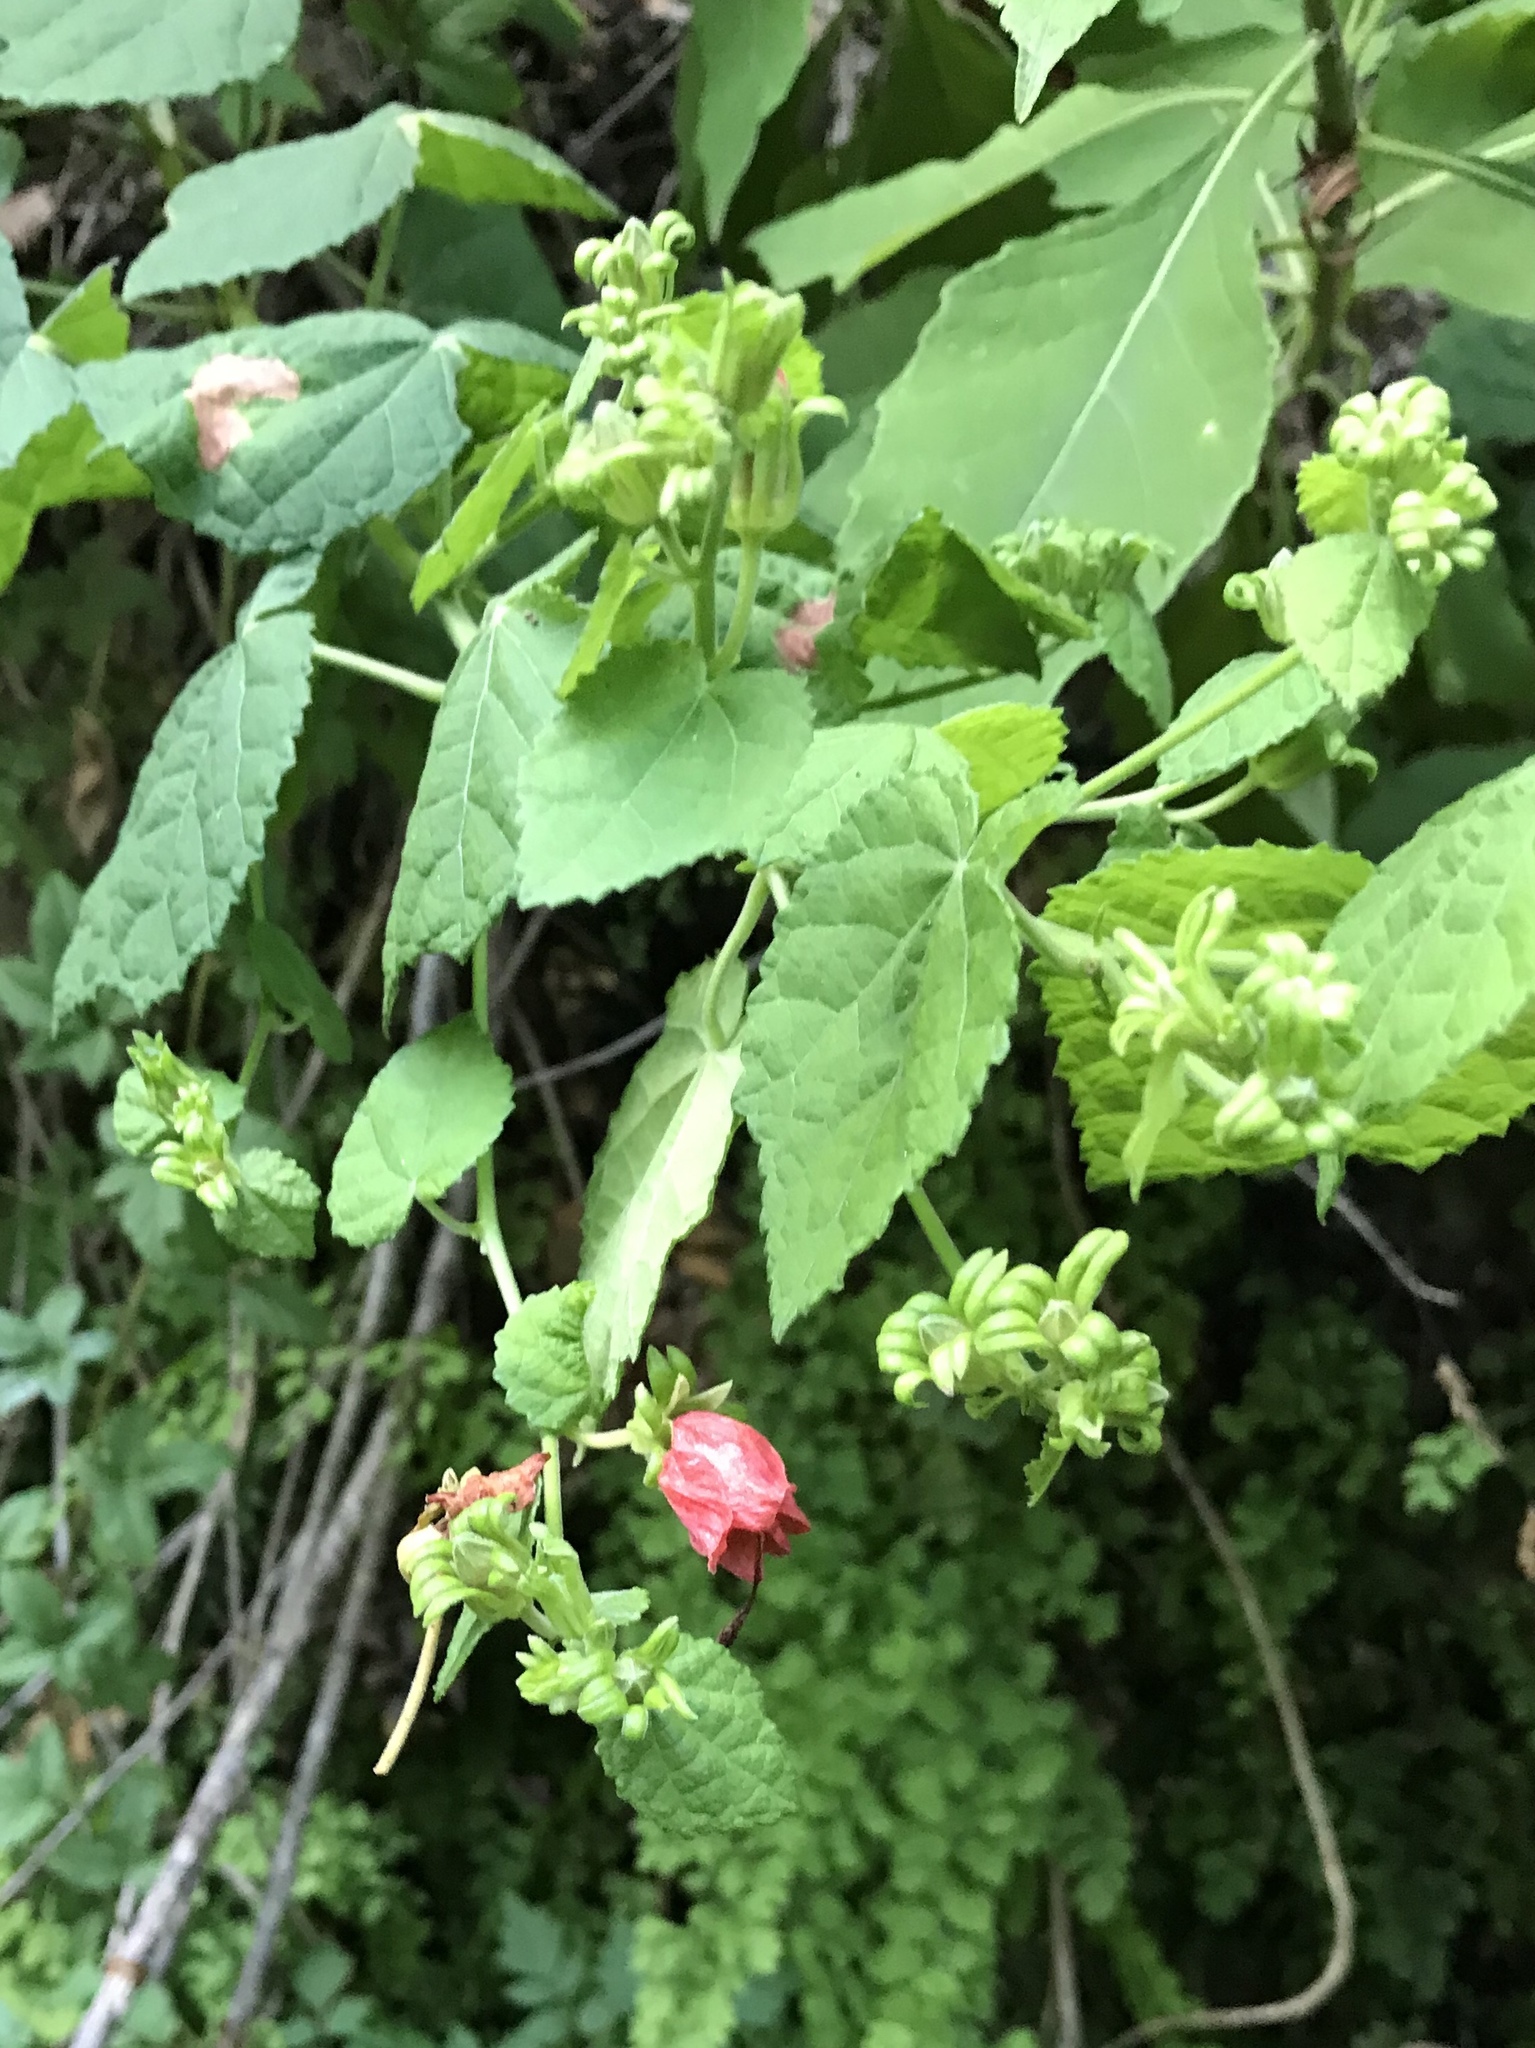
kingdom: Plantae
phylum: Tracheophyta
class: Magnoliopsida
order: Malvales
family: Malvaceae
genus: Malvaviscus
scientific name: Malvaviscus arboreus
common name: Wax mallow
